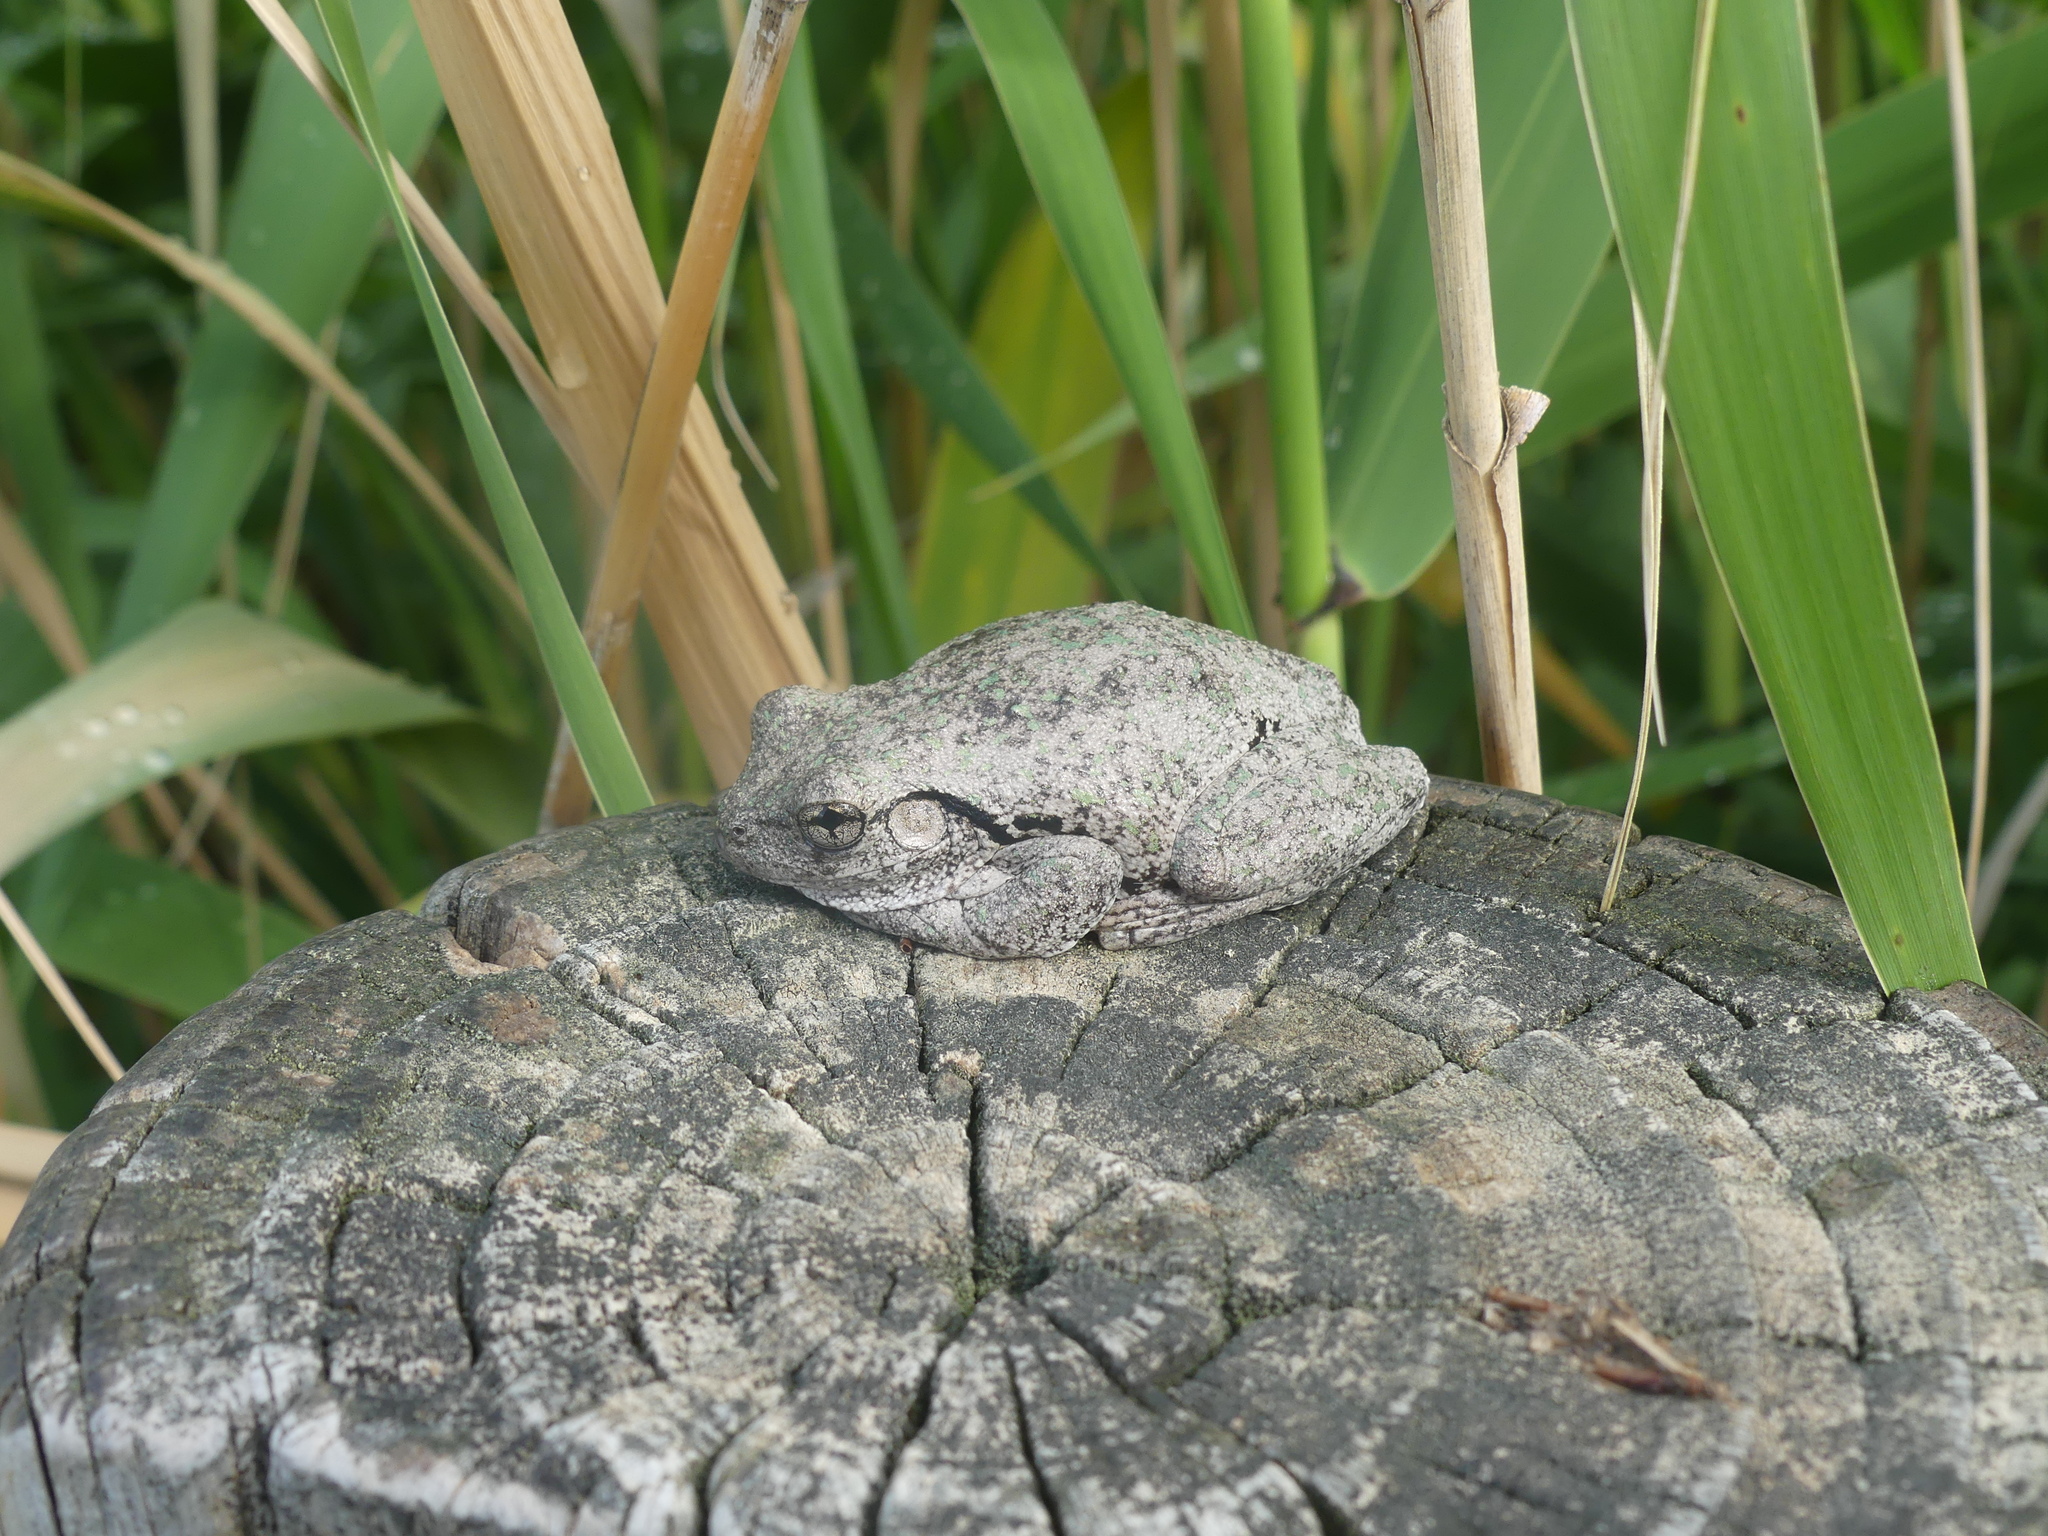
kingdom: Animalia
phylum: Chordata
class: Amphibia
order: Anura
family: Pelodryadidae
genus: Litoria
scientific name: Litoria peronii
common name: Emerald spotted treefrog
